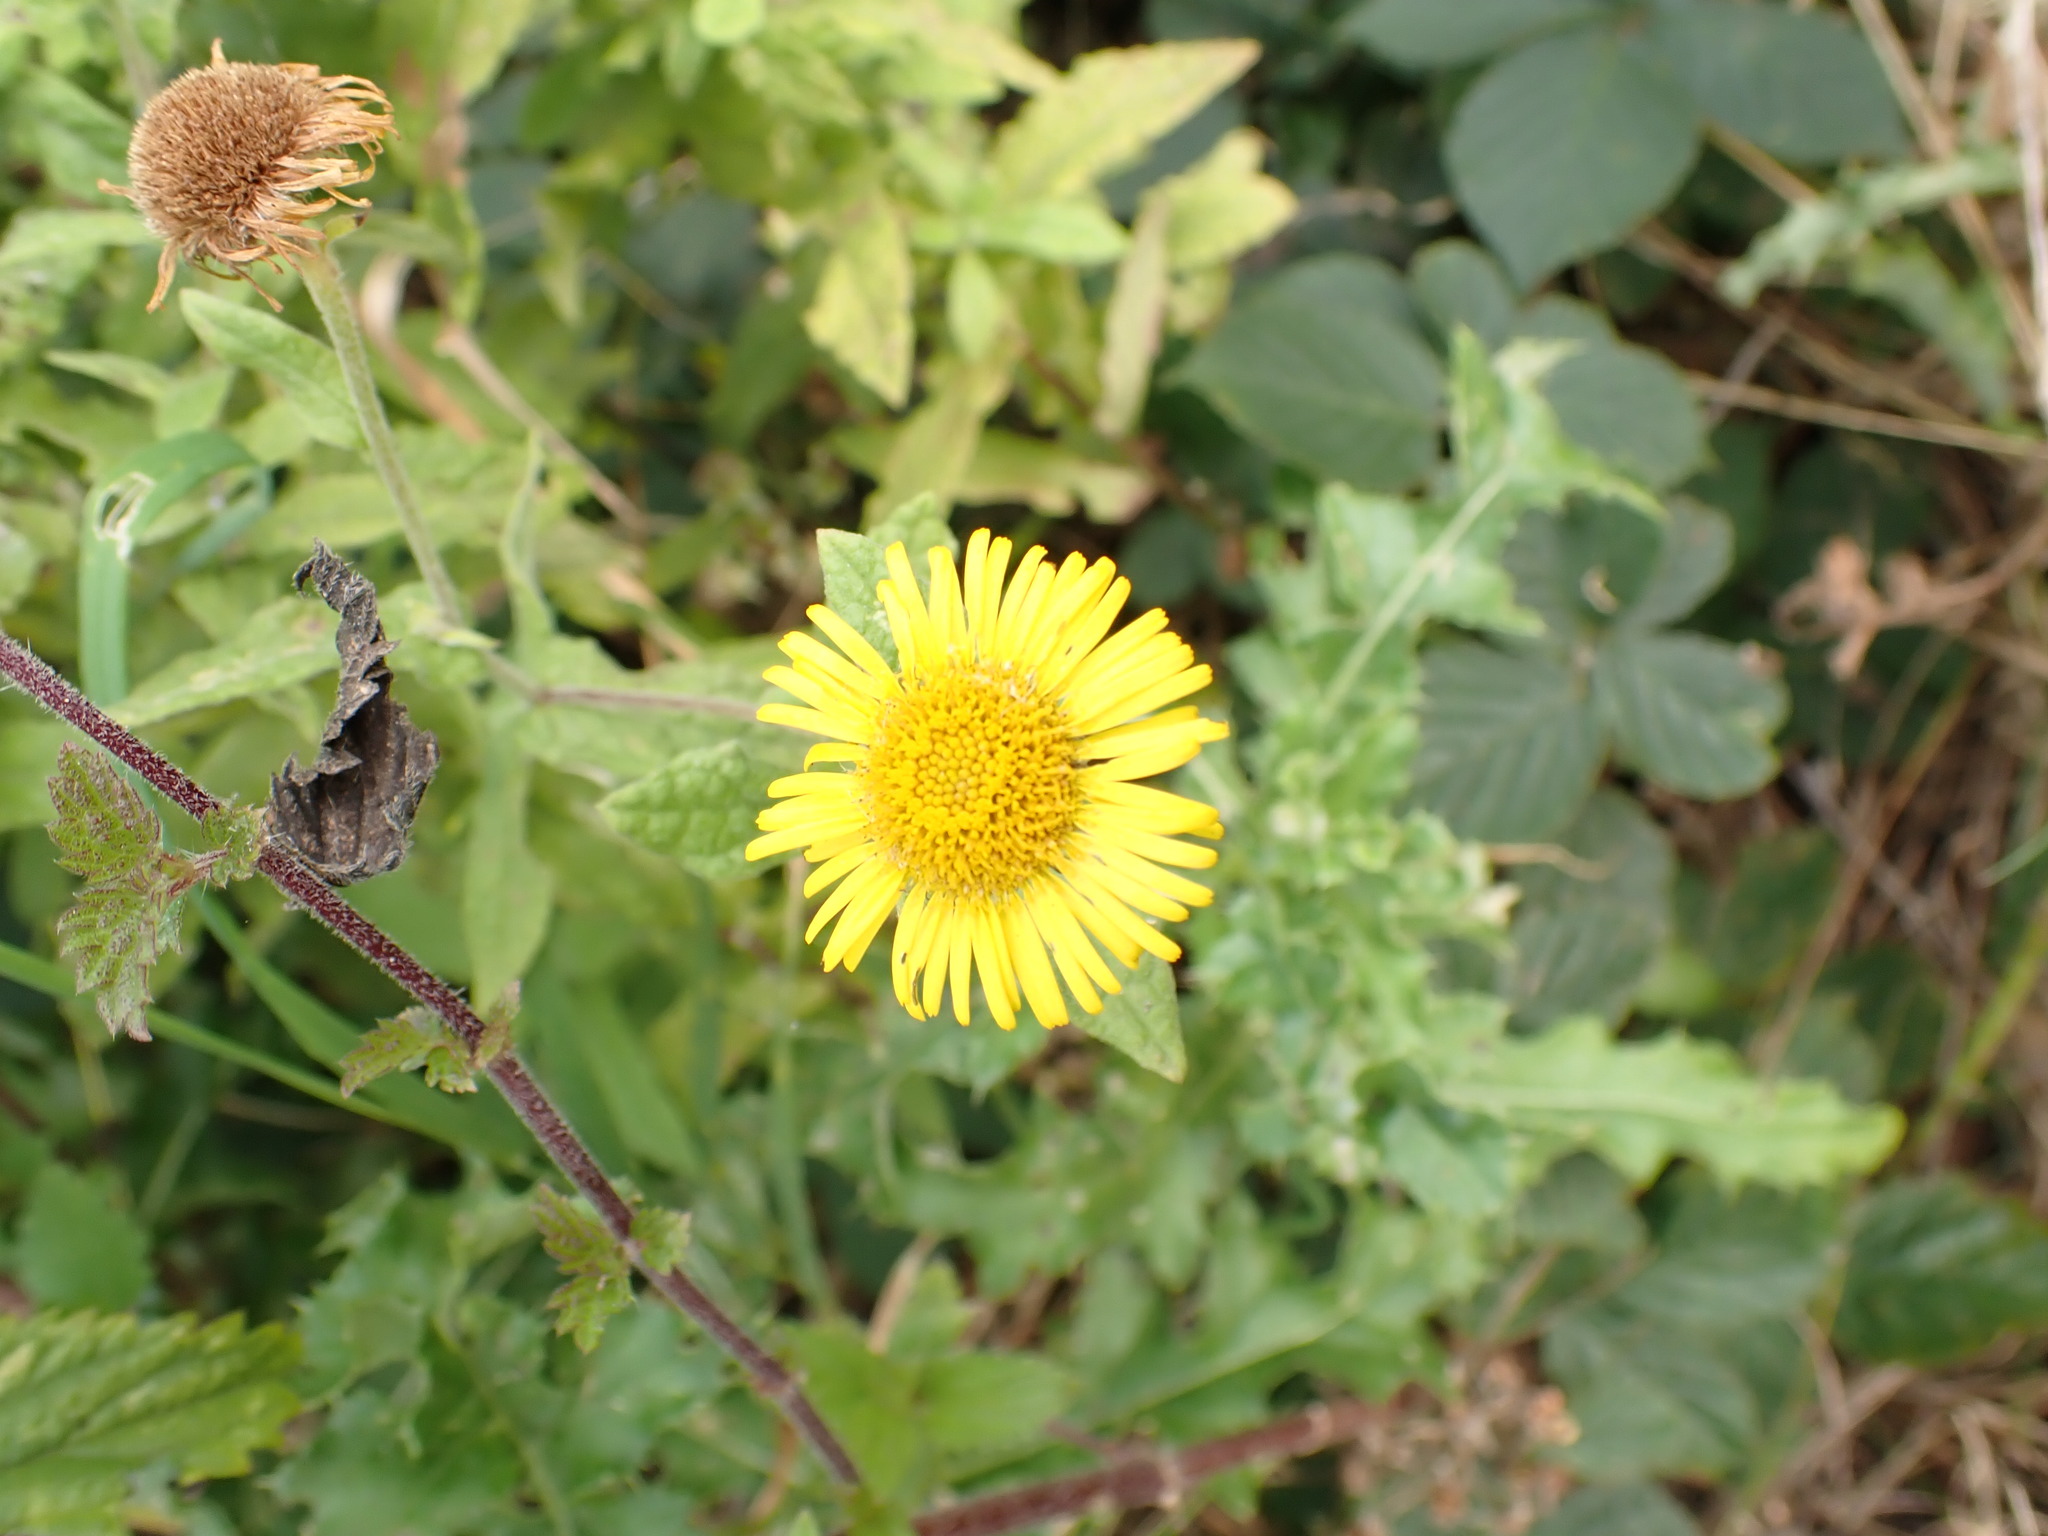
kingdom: Plantae
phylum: Tracheophyta
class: Magnoliopsida
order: Asterales
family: Asteraceae
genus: Pulicaria
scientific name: Pulicaria dysenterica
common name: Common fleabane
